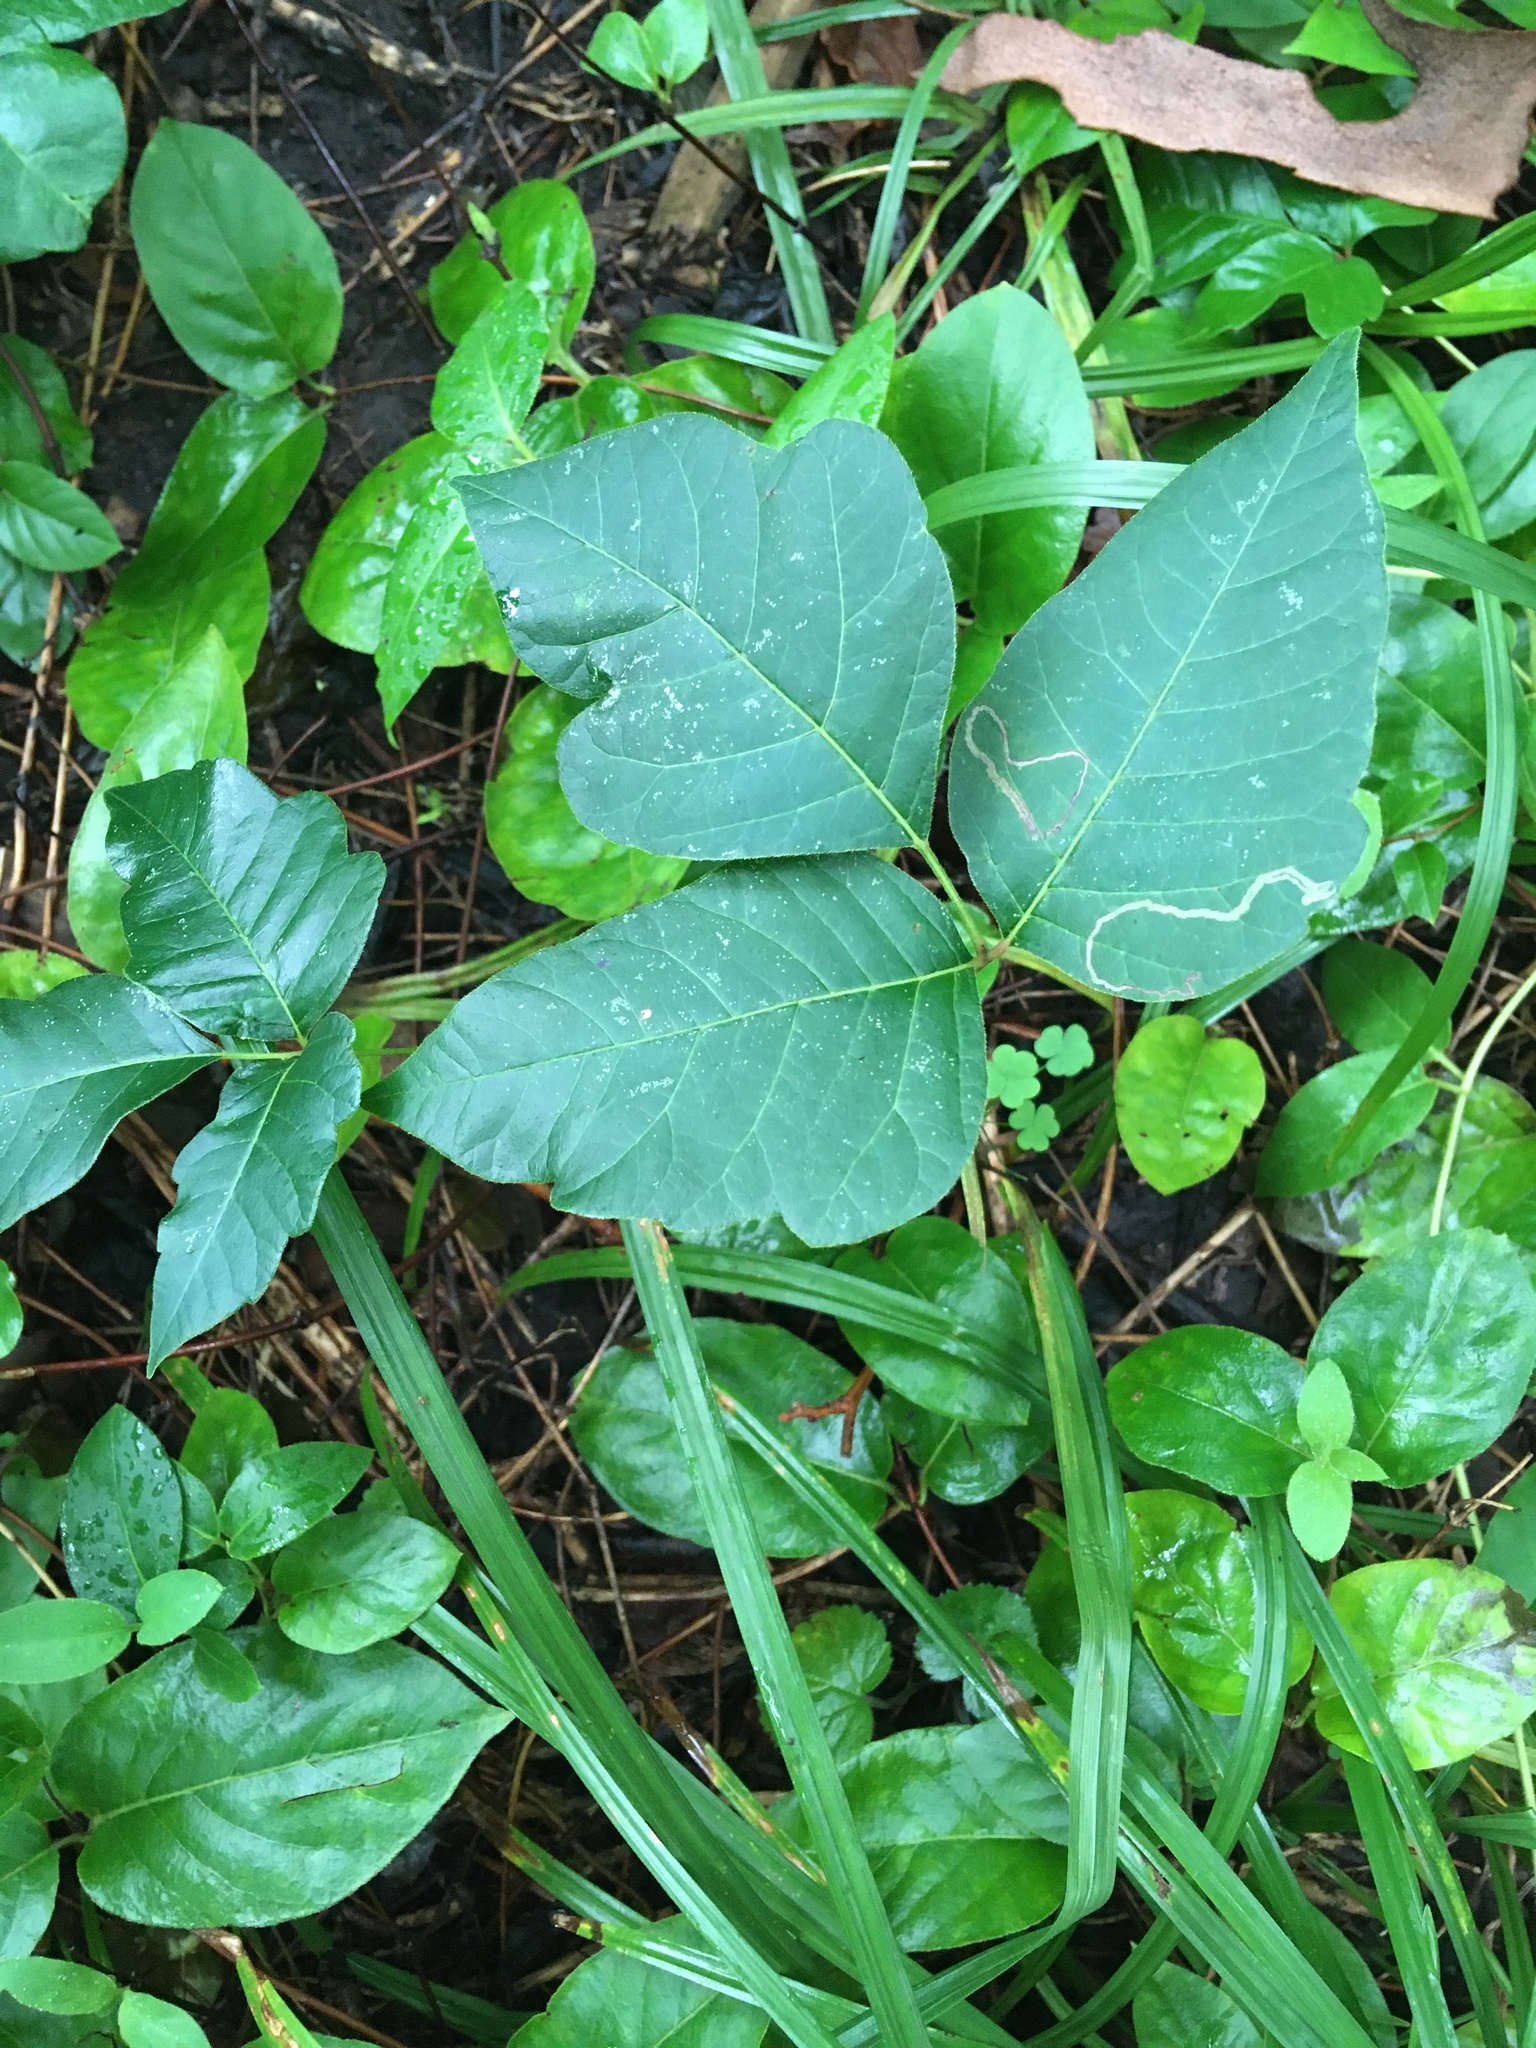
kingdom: Plantae
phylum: Tracheophyta
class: Magnoliopsida
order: Sapindales
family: Anacardiaceae
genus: Toxicodendron
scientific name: Toxicodendron radicans
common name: Poison ivy
